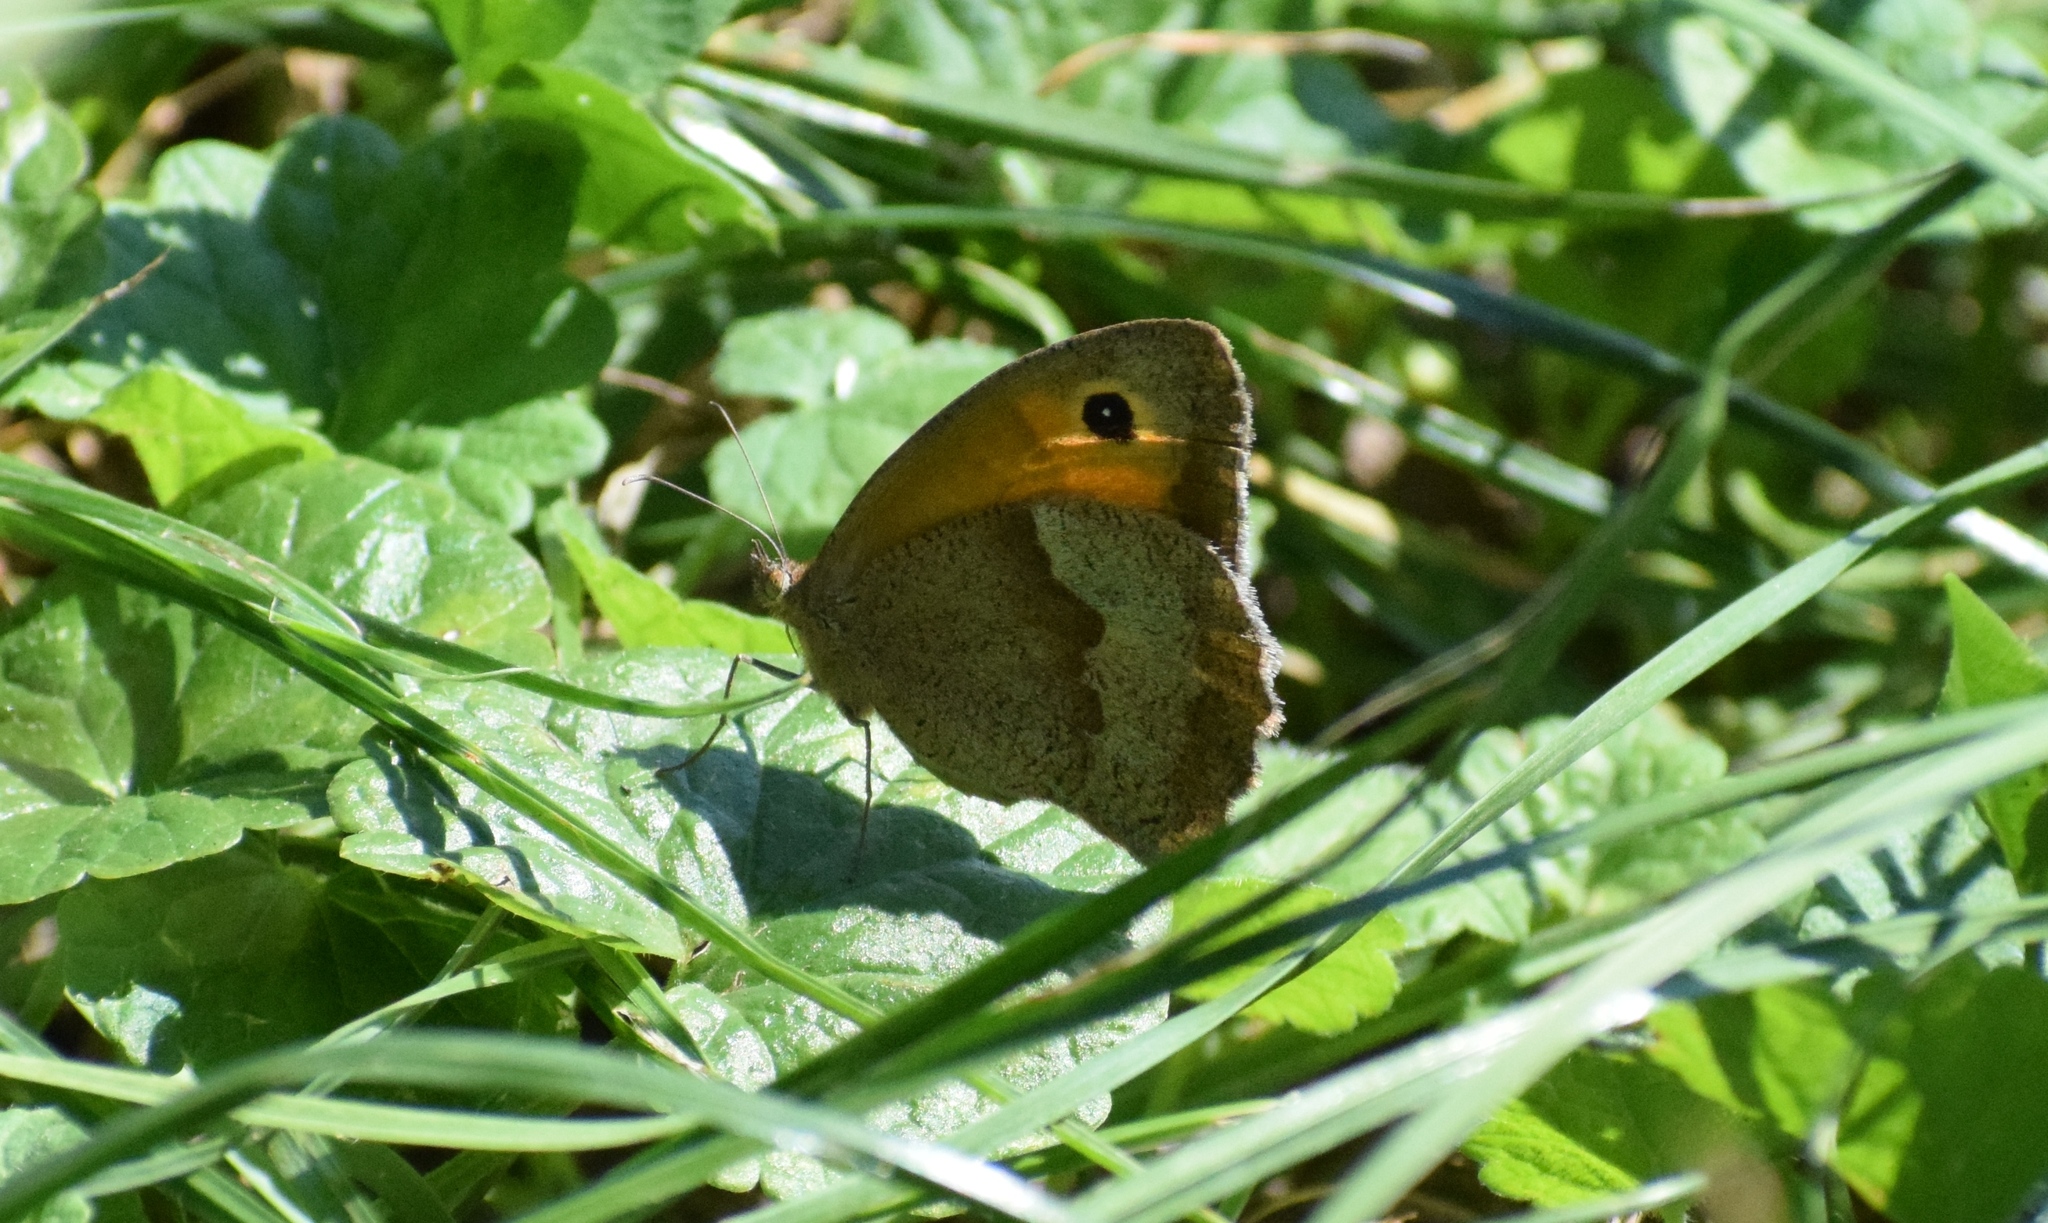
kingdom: Animalia
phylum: Arthropoda
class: Insecta
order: Lepidoptera
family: Nymphalidae
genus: Maniola
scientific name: Maniola jurtina
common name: Meadow brown
